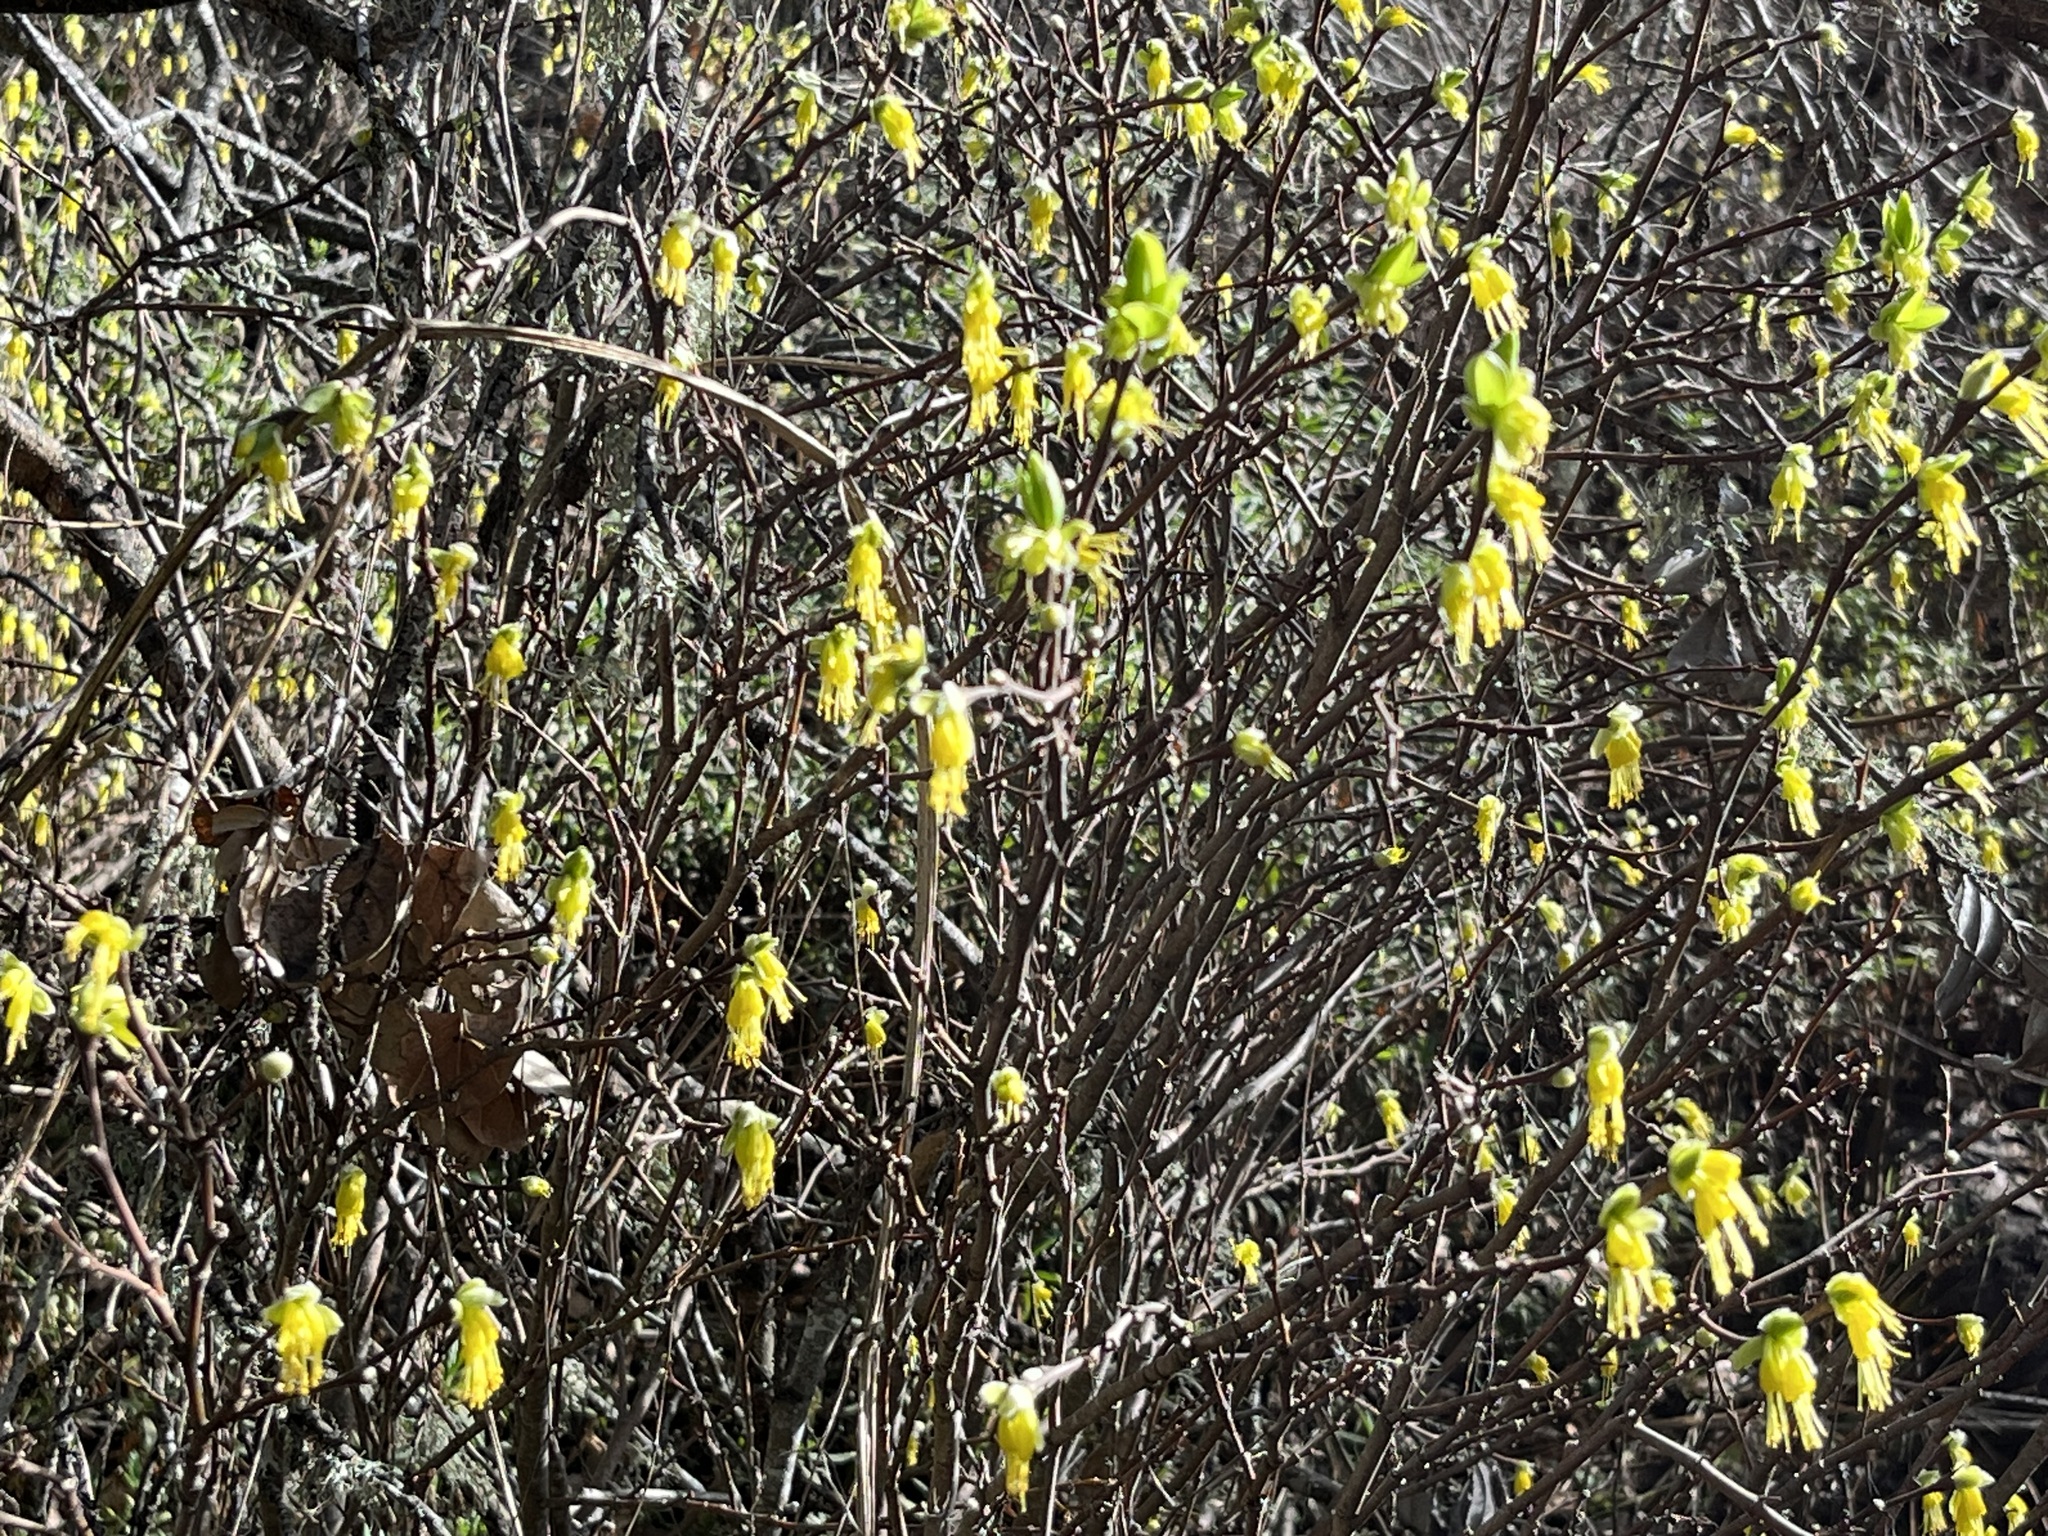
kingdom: Plantae
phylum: Tracheophyta
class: Magnoliopsida
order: Malvales
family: Thymelaeaceae
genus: Dirca
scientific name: Dirca occidentalis
